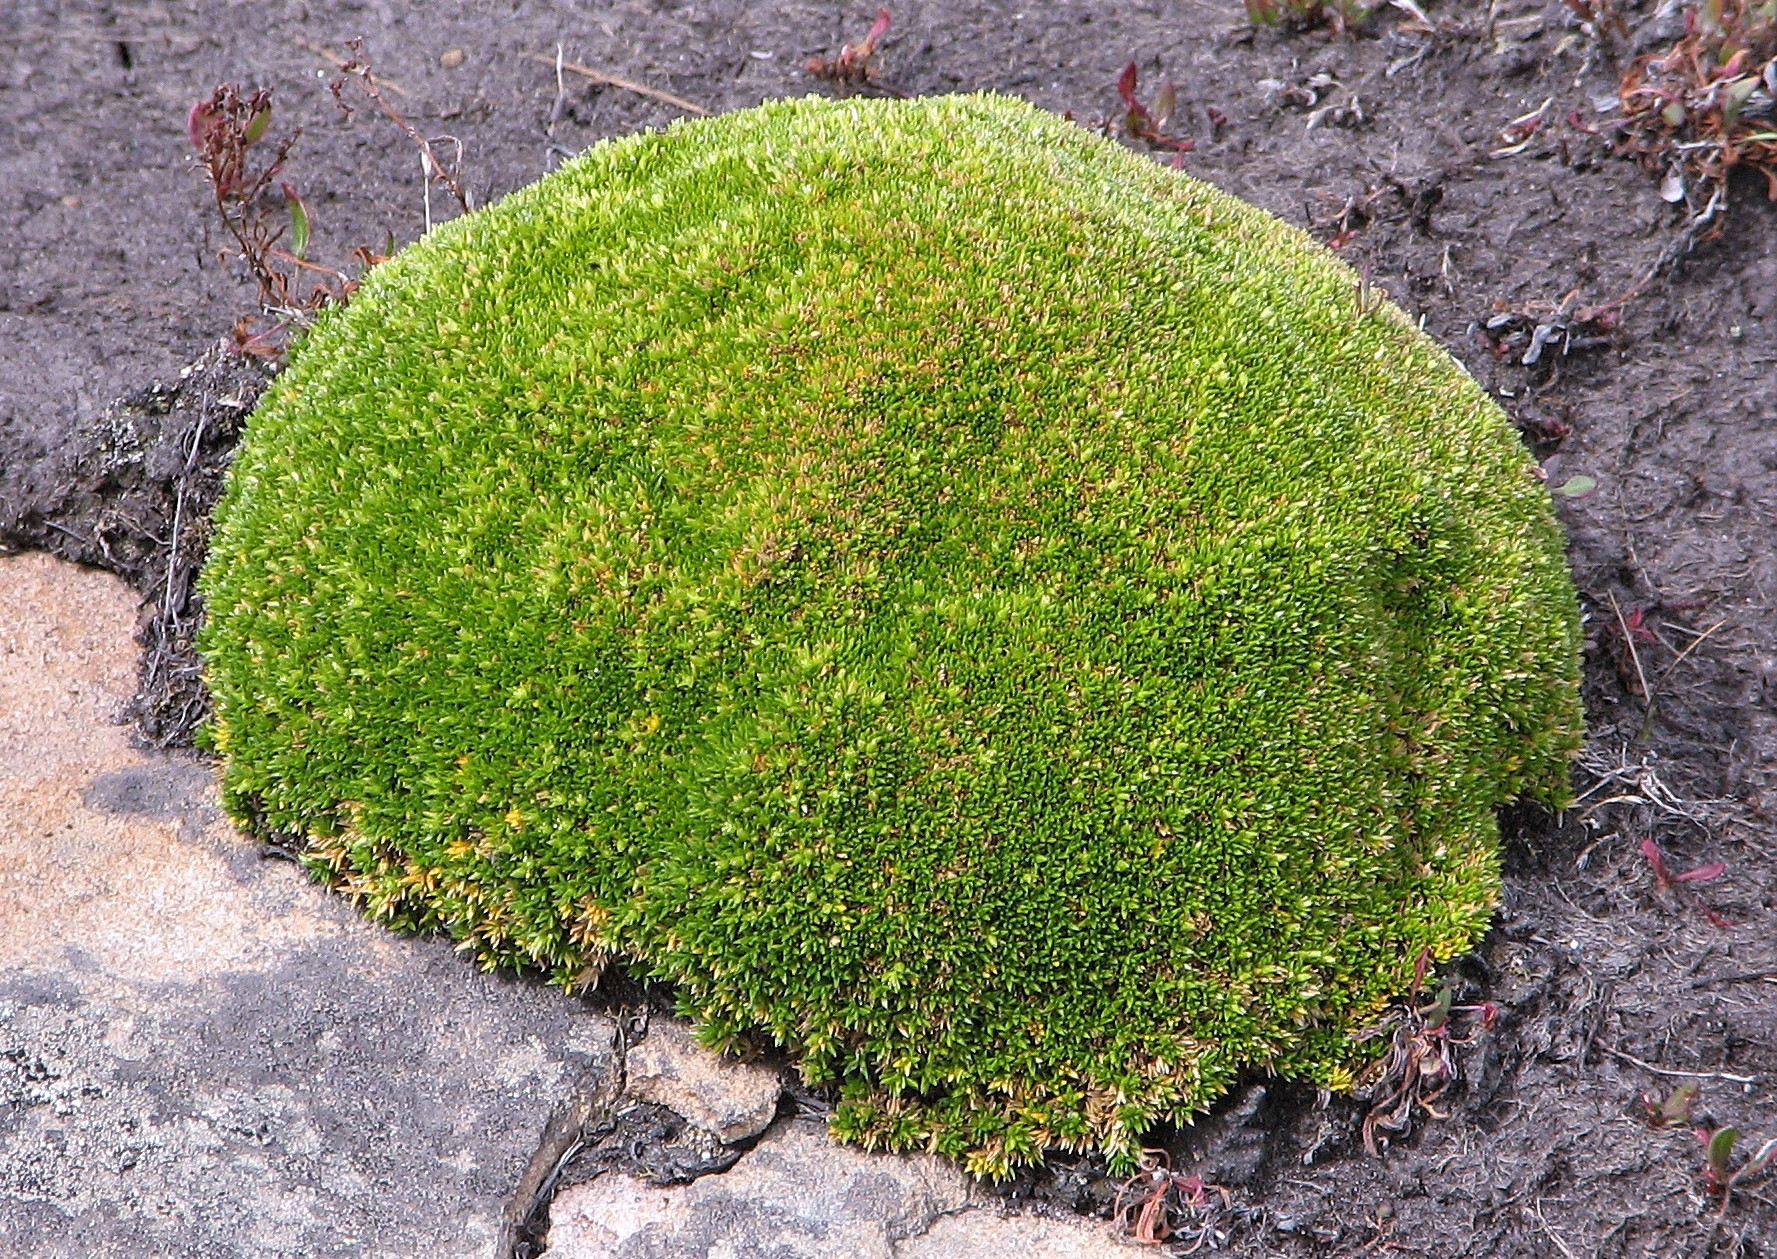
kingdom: Plantae
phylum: Tracheophyta
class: Magnoliopsida
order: Caryophyllales
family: Caryophyllaceae
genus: Colobanthus
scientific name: Colobanthus subulatus
